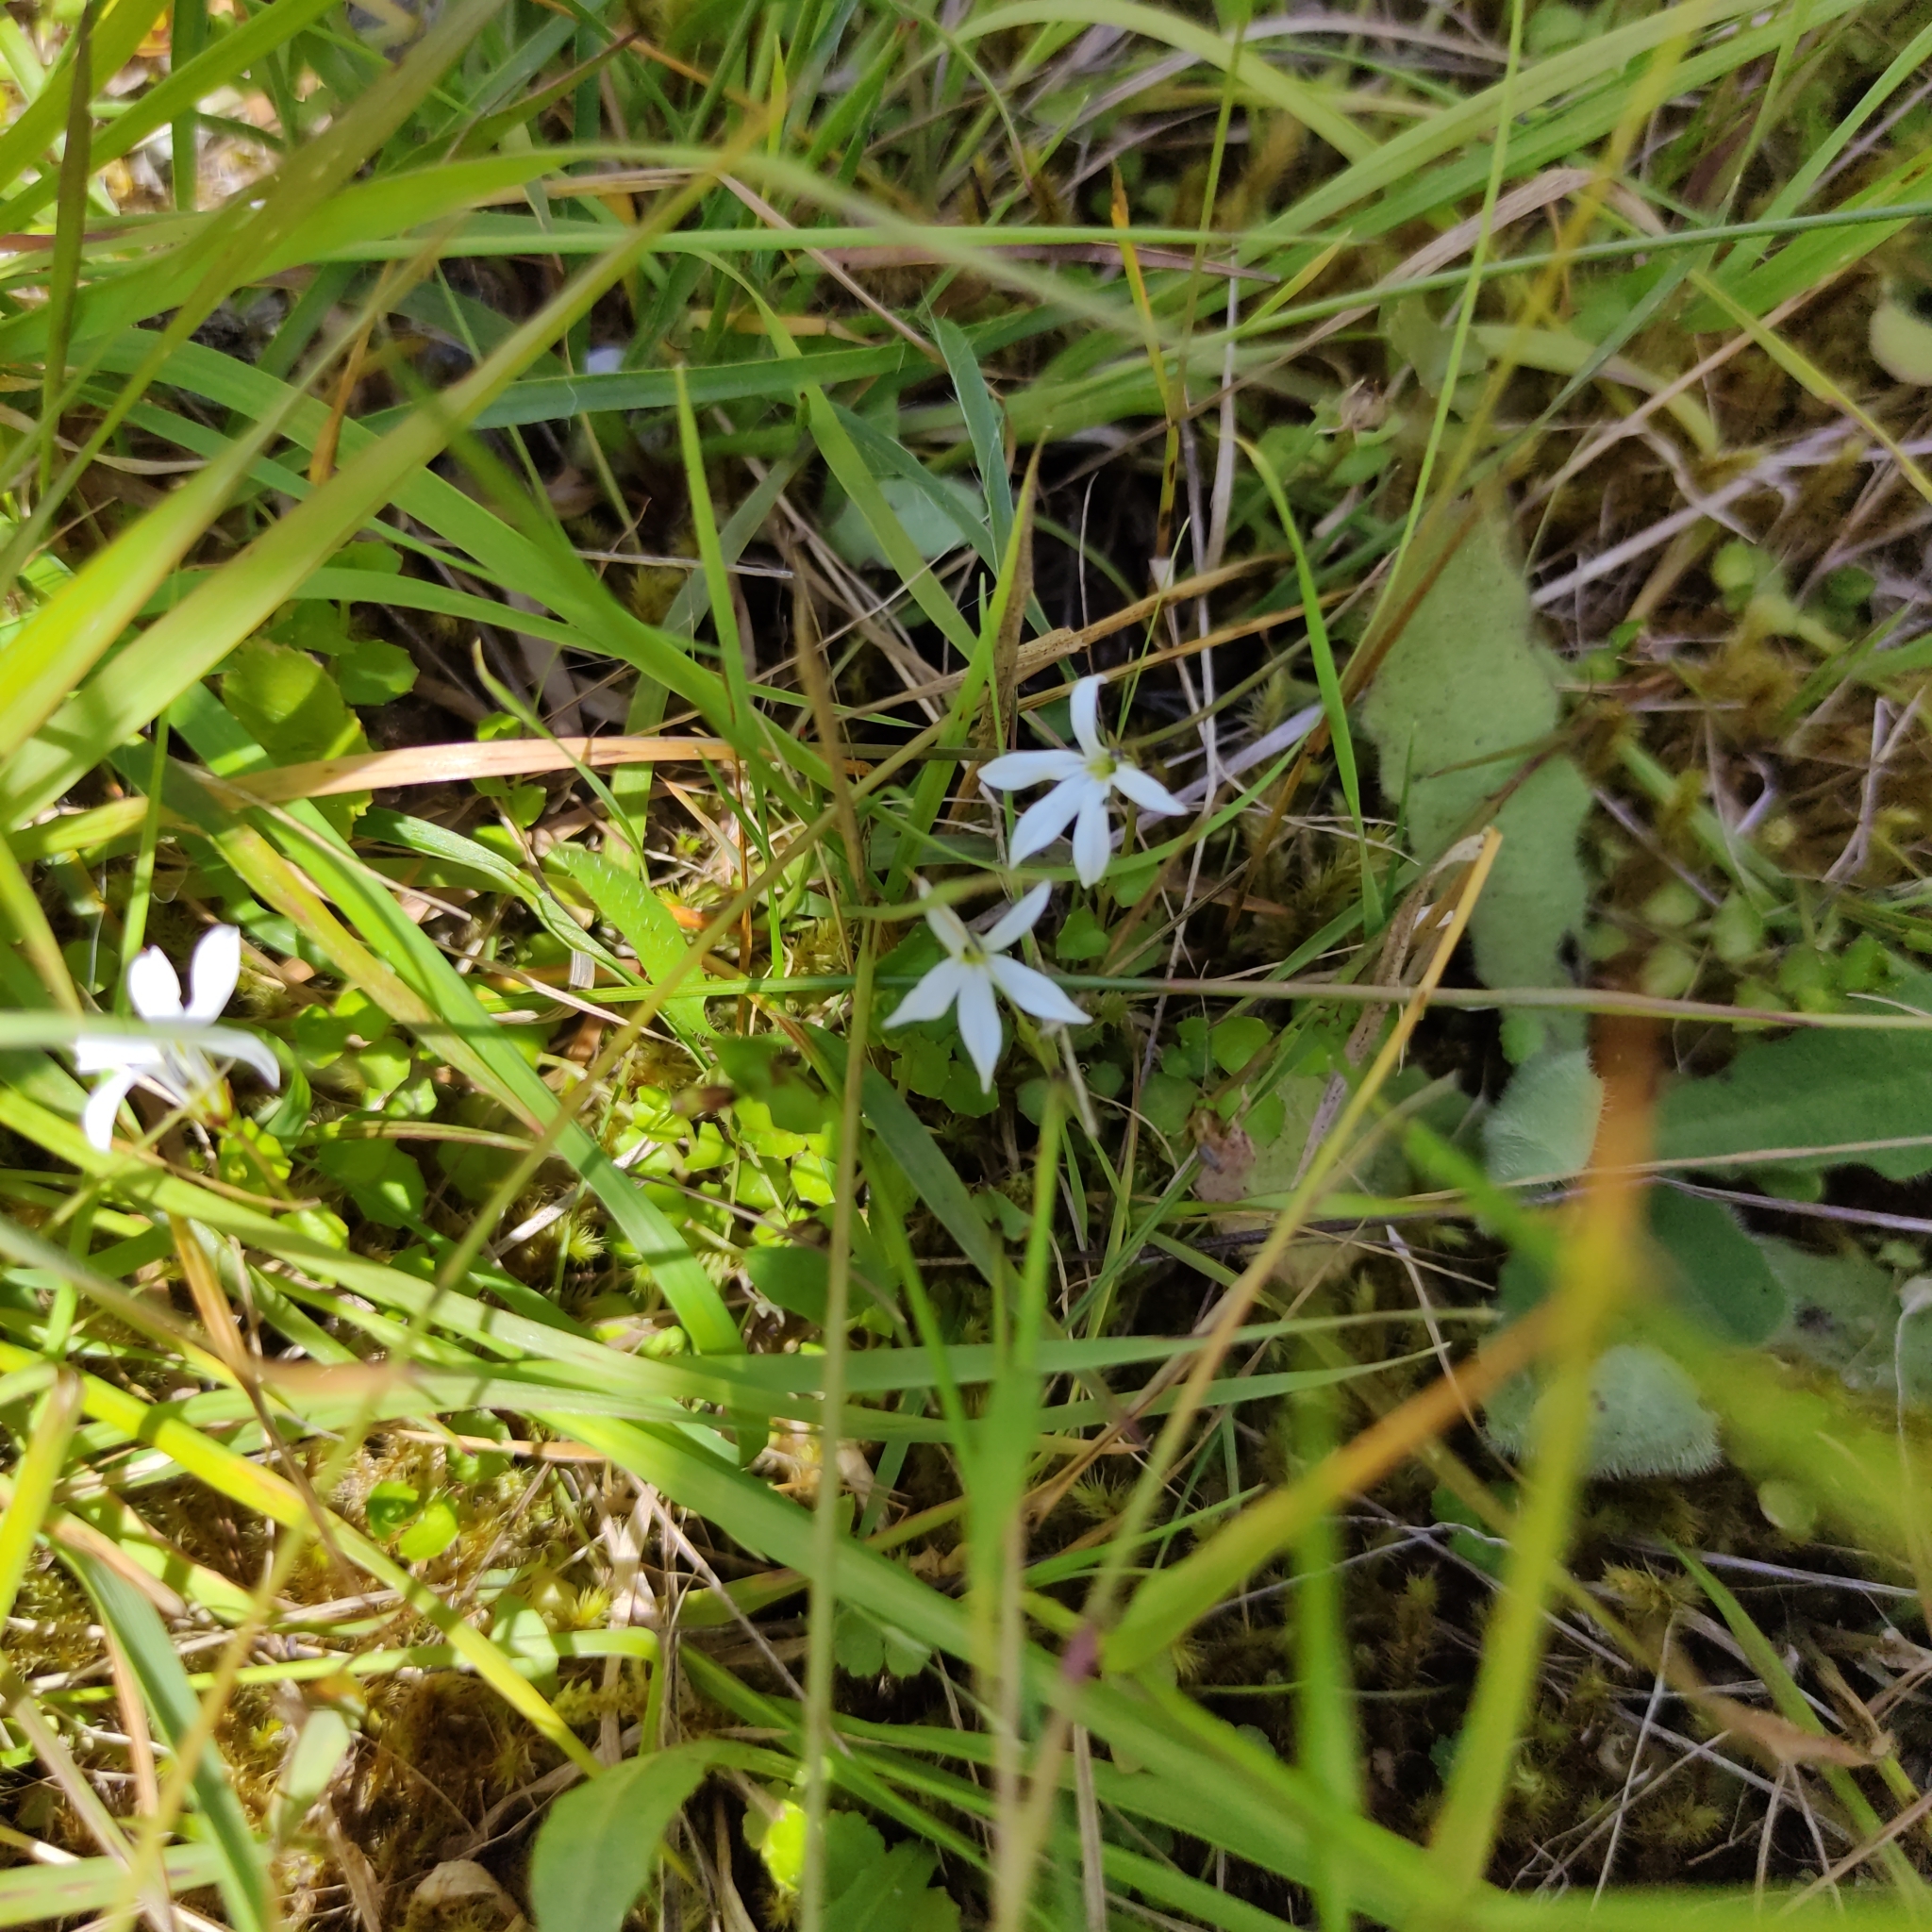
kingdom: Plantae
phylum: Tracheophyta
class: Magnoliopsida
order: Asterales
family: Campanulaceae
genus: Lobelia
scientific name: Lobelia angulata
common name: Lawn lobelia
